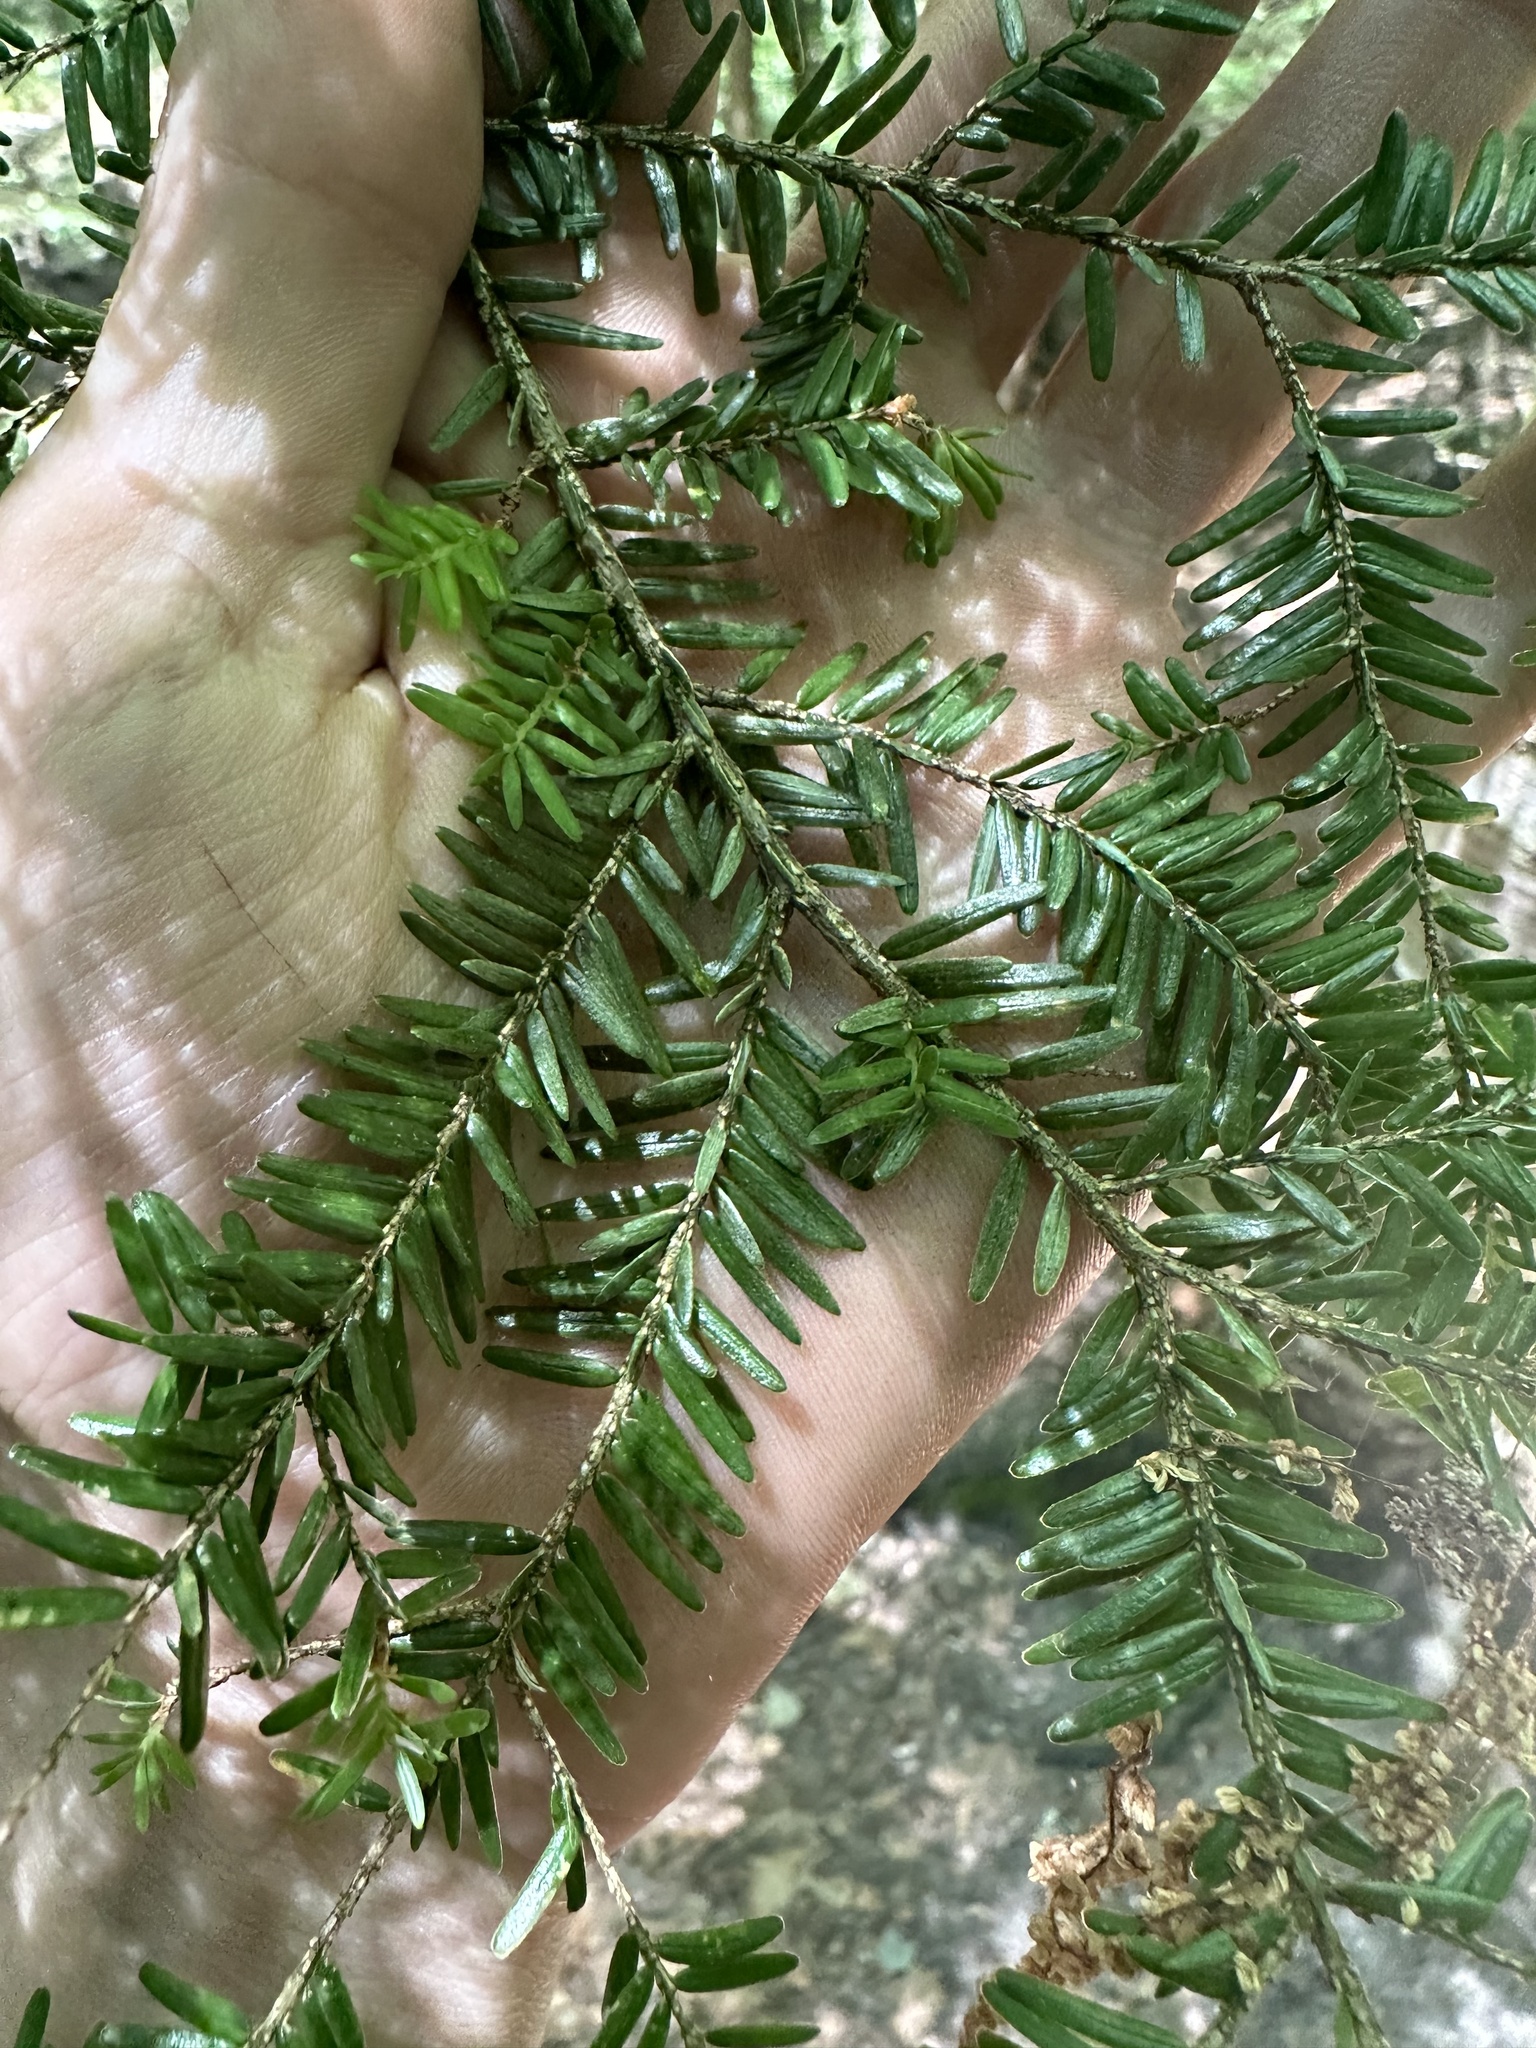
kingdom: Plantae
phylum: Tracheophyta
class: Pinopsida
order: Pinales
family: Pinaceae
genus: Tsuga
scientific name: Tsuga canadensis
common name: Eastern hemlock
